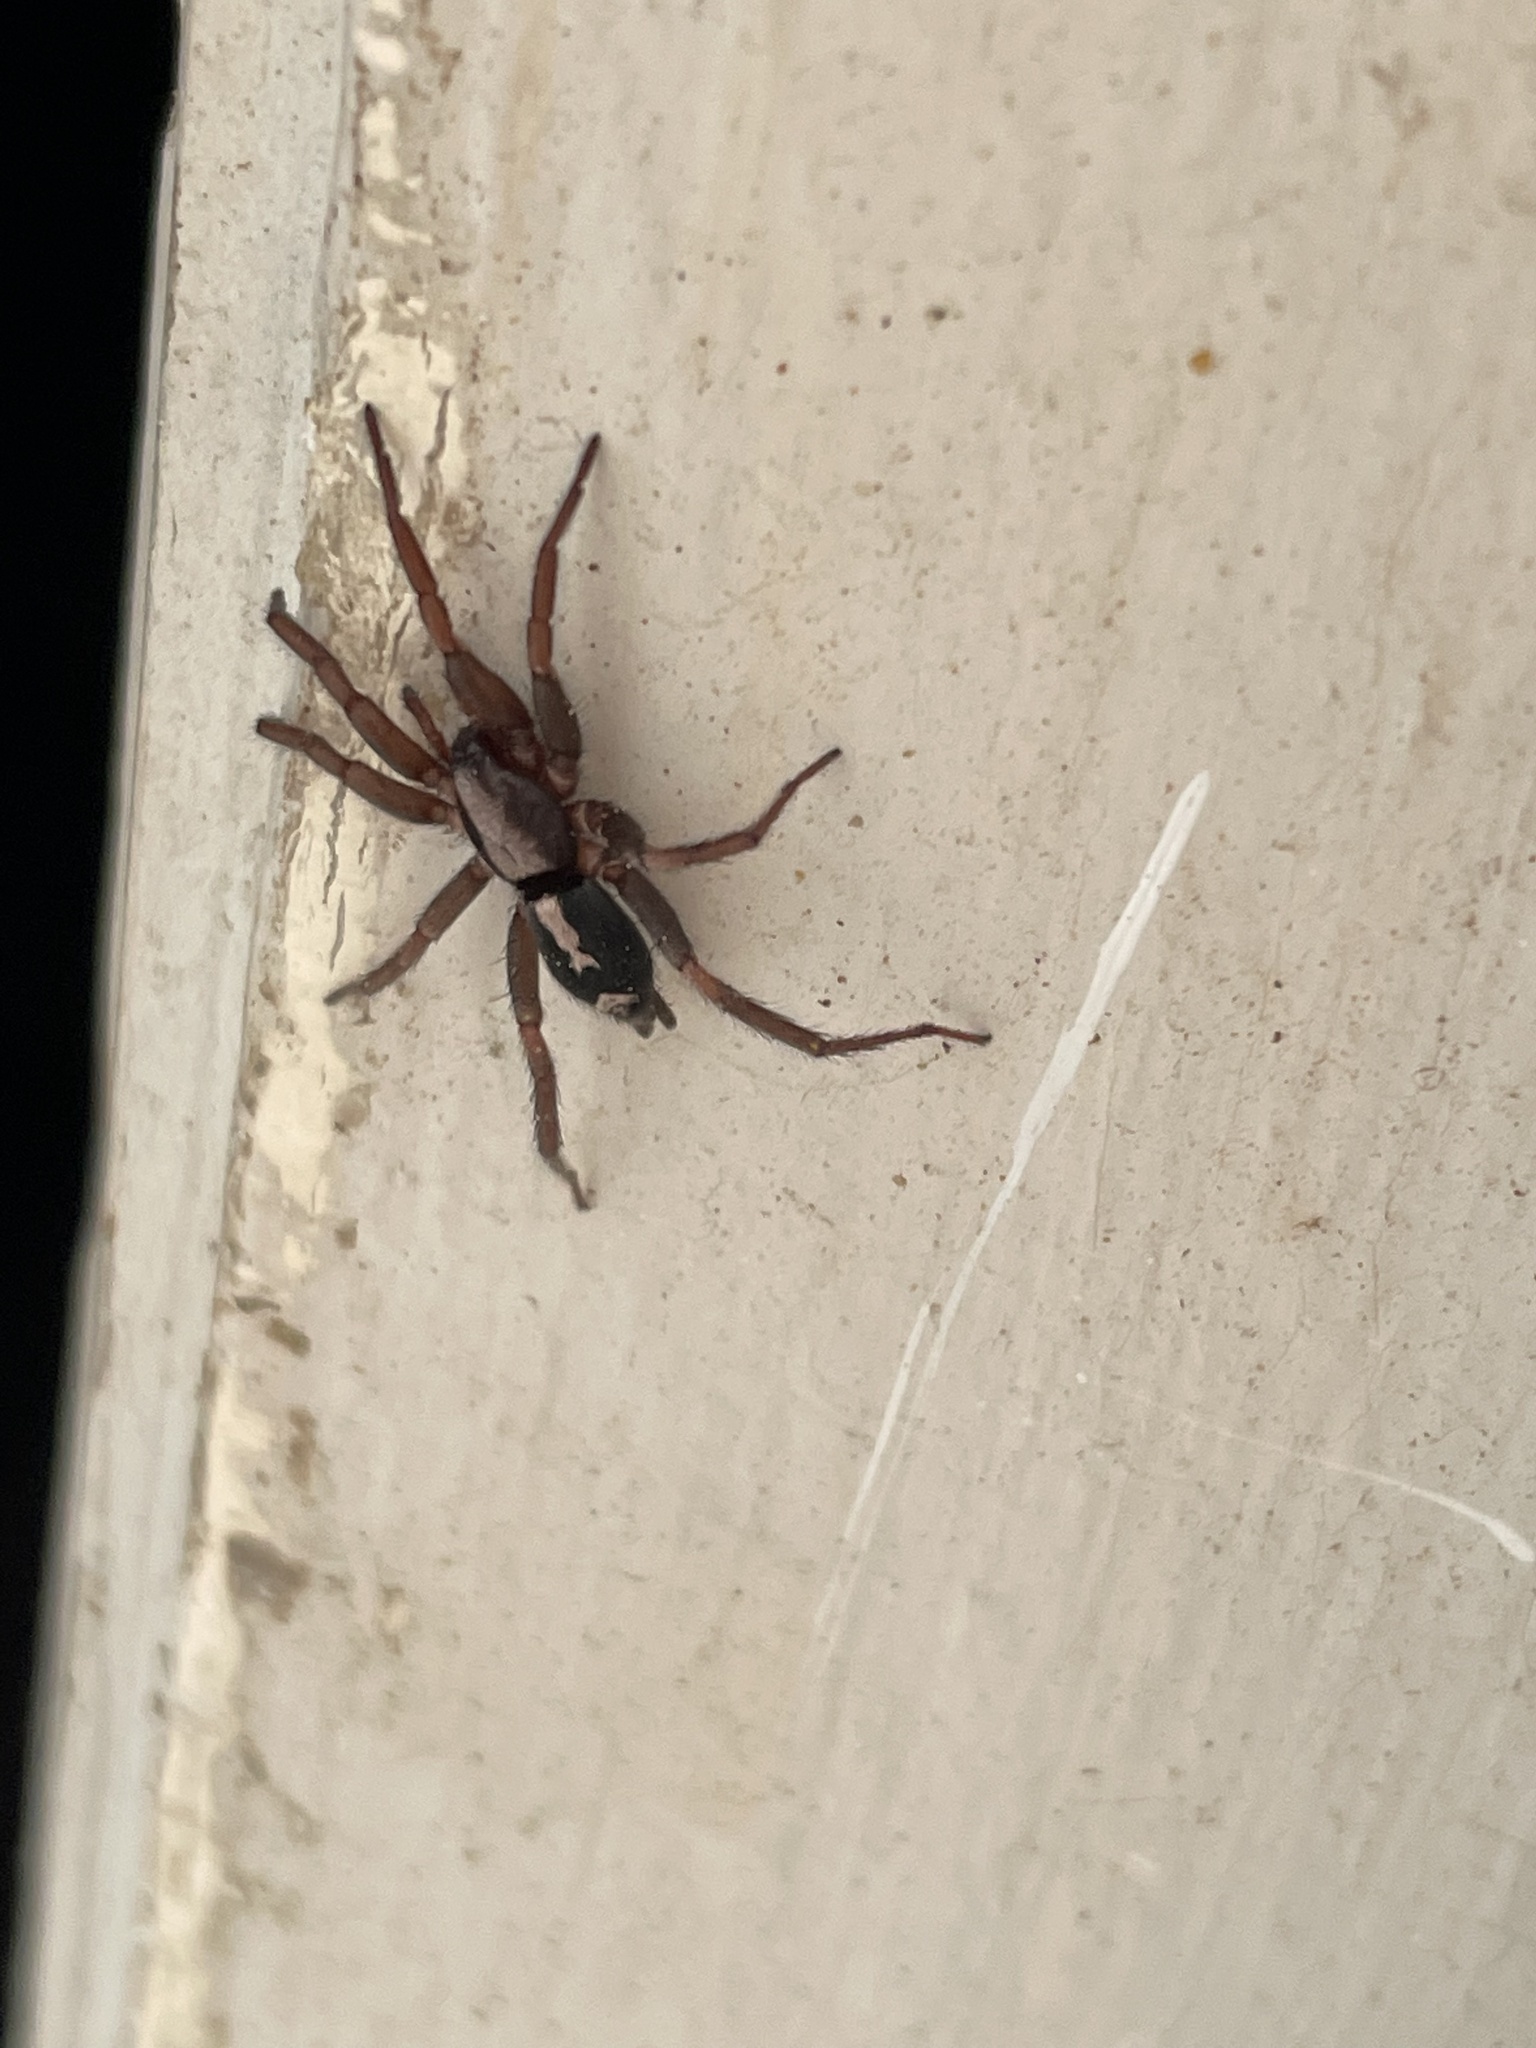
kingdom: Animalia
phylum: Arthropoda
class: Arachnida
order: Araneae
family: Gnaphosidae
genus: Herpyllus
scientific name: Herpyllus ecclesiasticus
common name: Eastern parson spider
